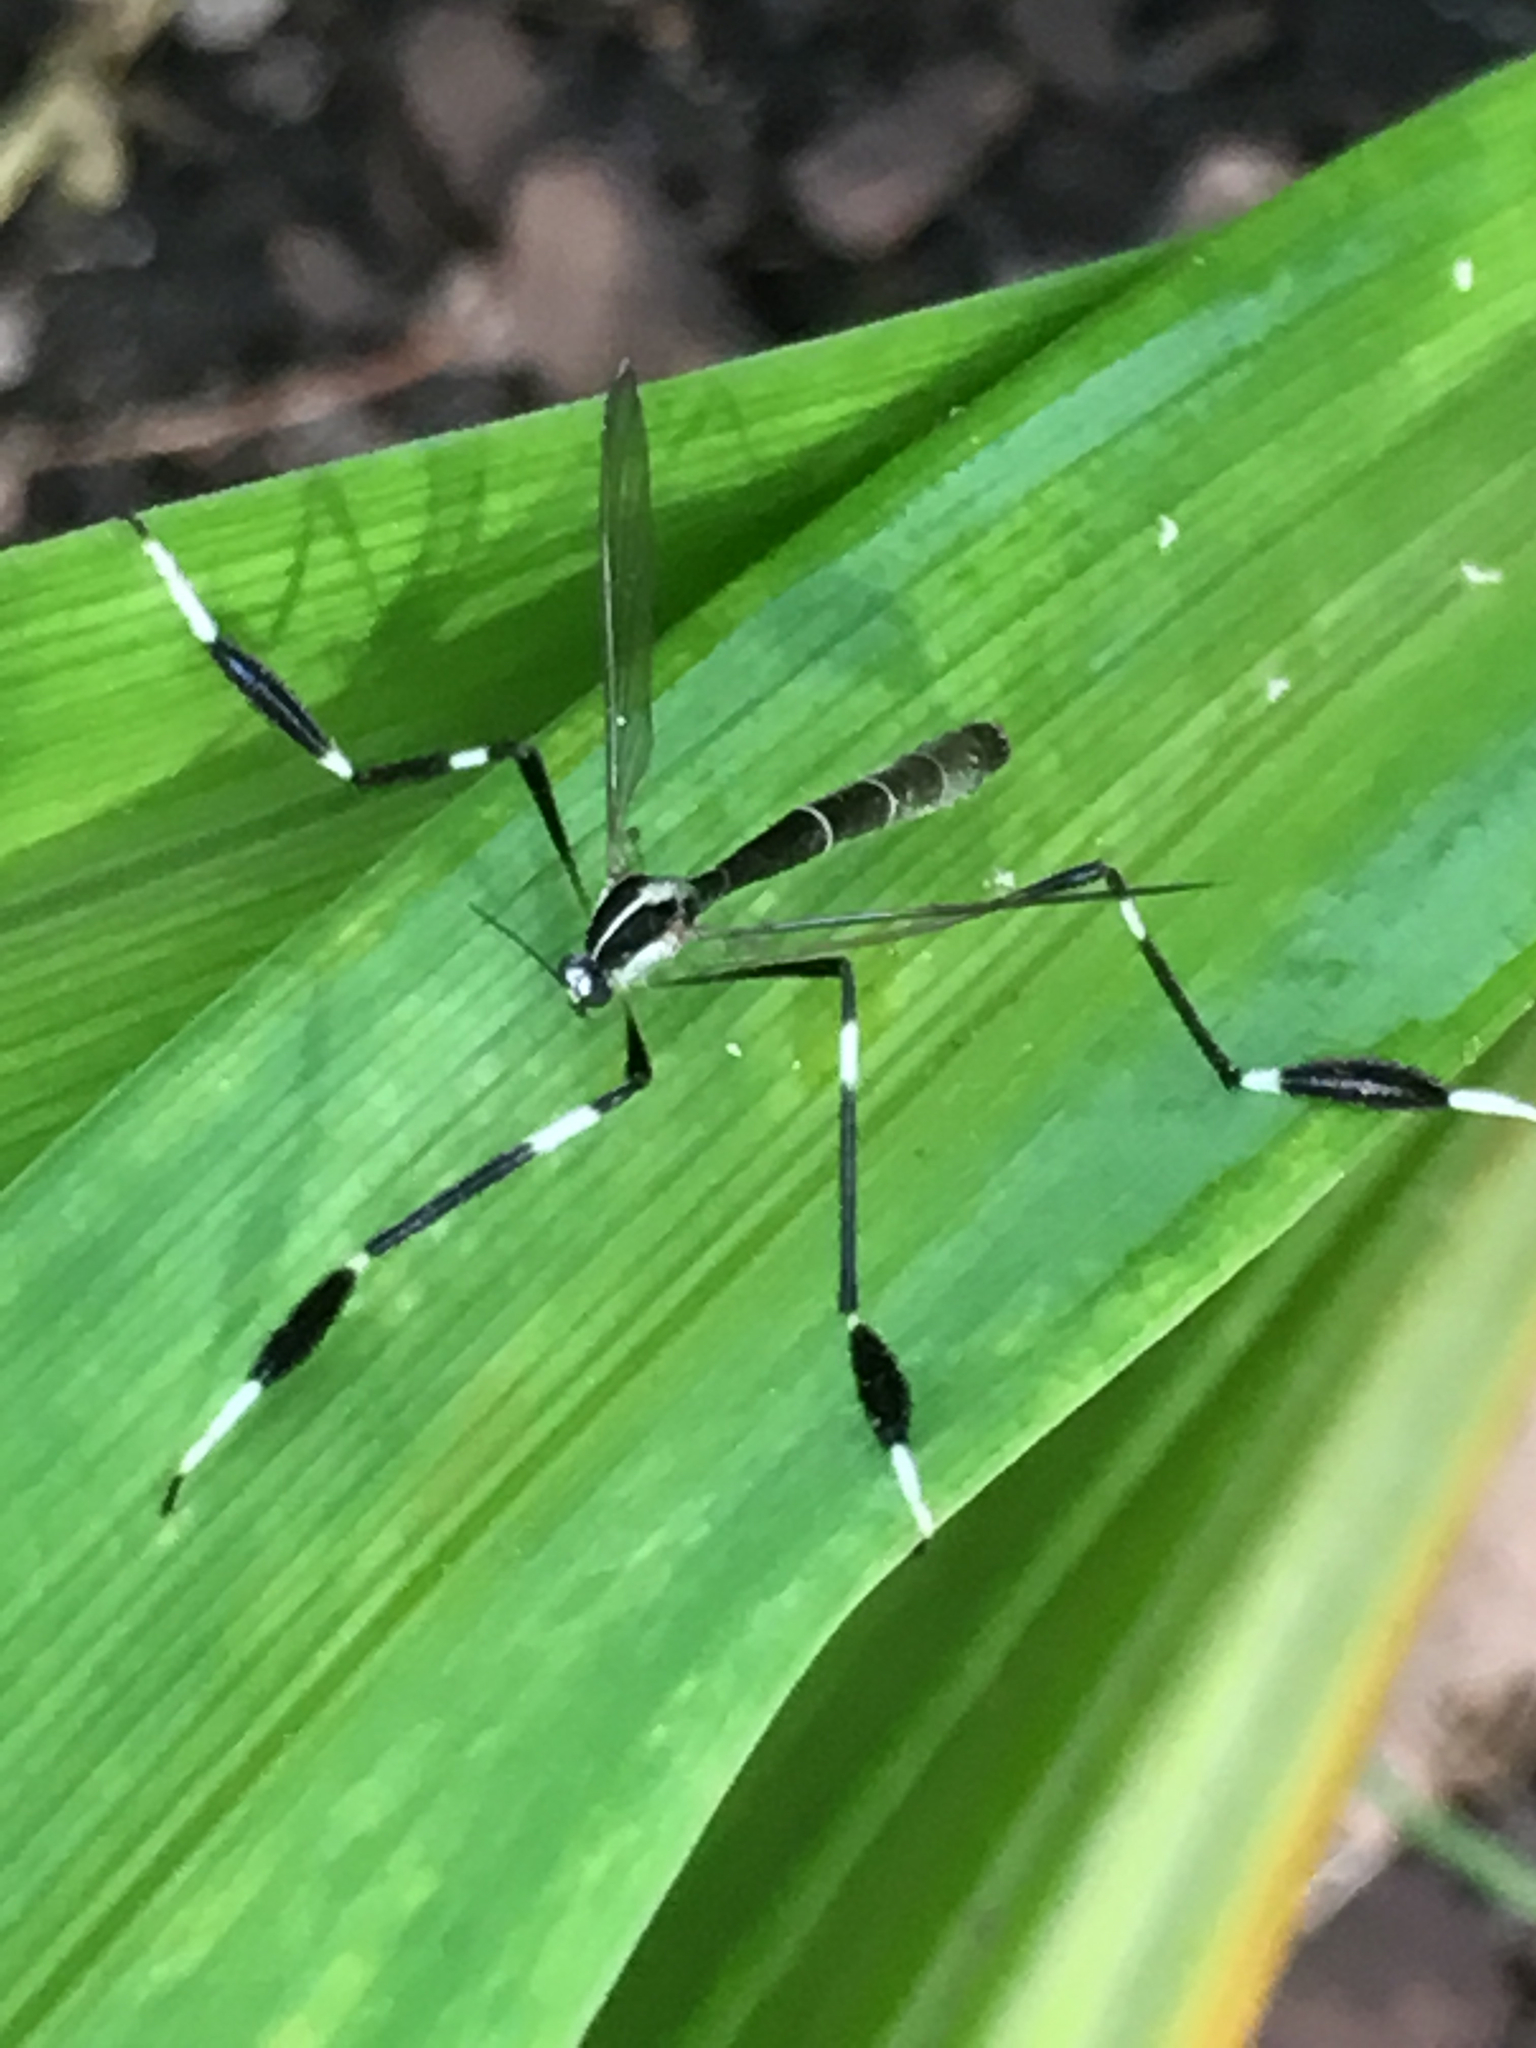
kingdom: Animalia
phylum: Arthropoda
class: Insecta
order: Diptera
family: Ptychopteridae
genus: Bittacomorpha
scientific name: Bittacomorpha clavipes
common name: Eastern phantom crane fly
